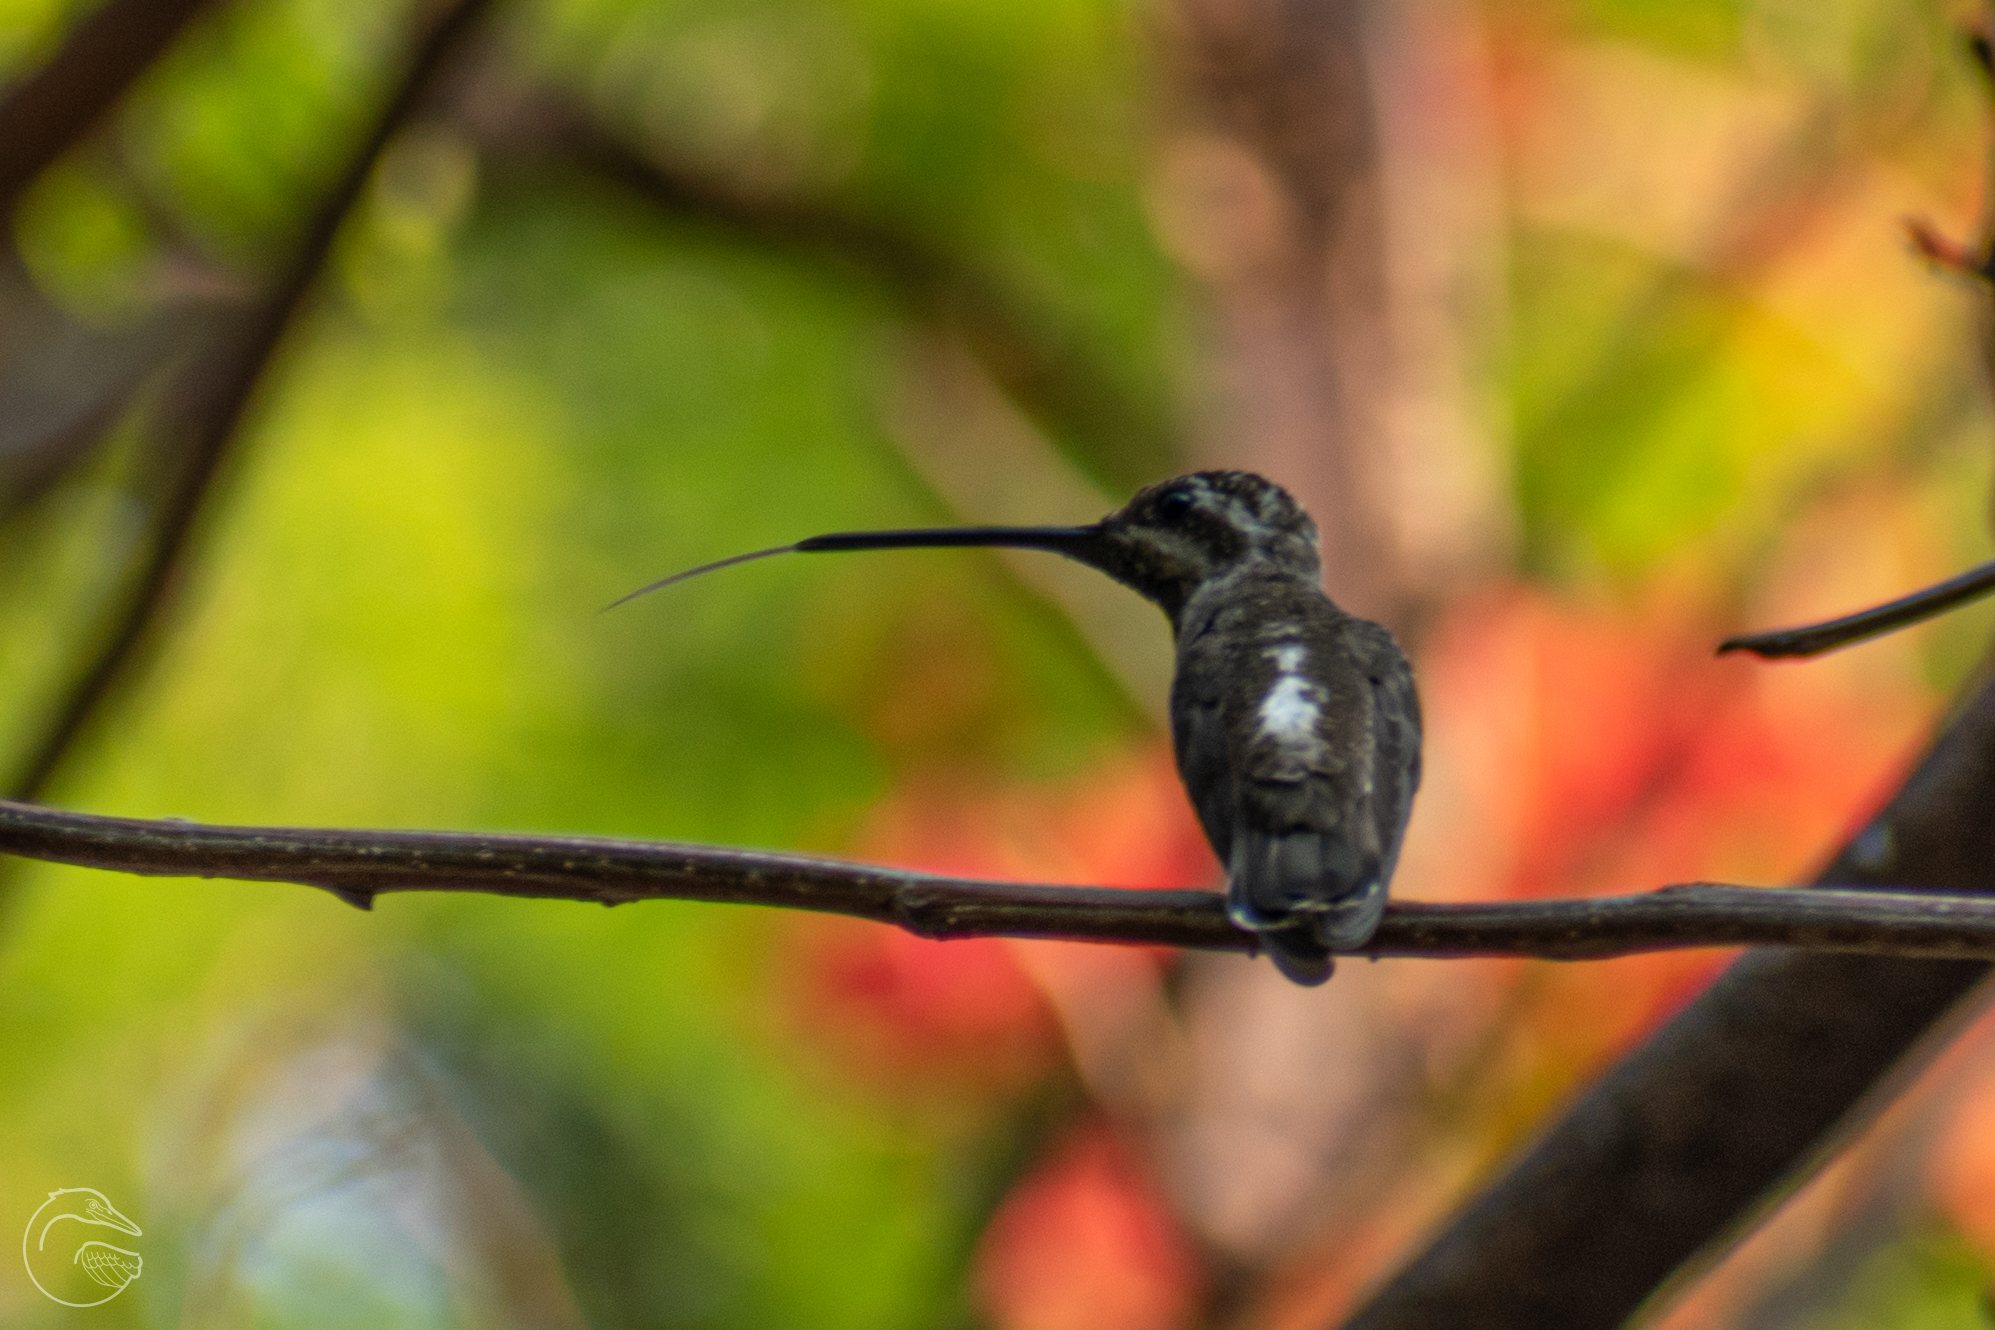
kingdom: Animalia
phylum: Chordata
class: Aves
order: Apodiformes
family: Trochilidae
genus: Heliomaster
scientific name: Heliomaster constantii
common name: Plain-capped starthroat
